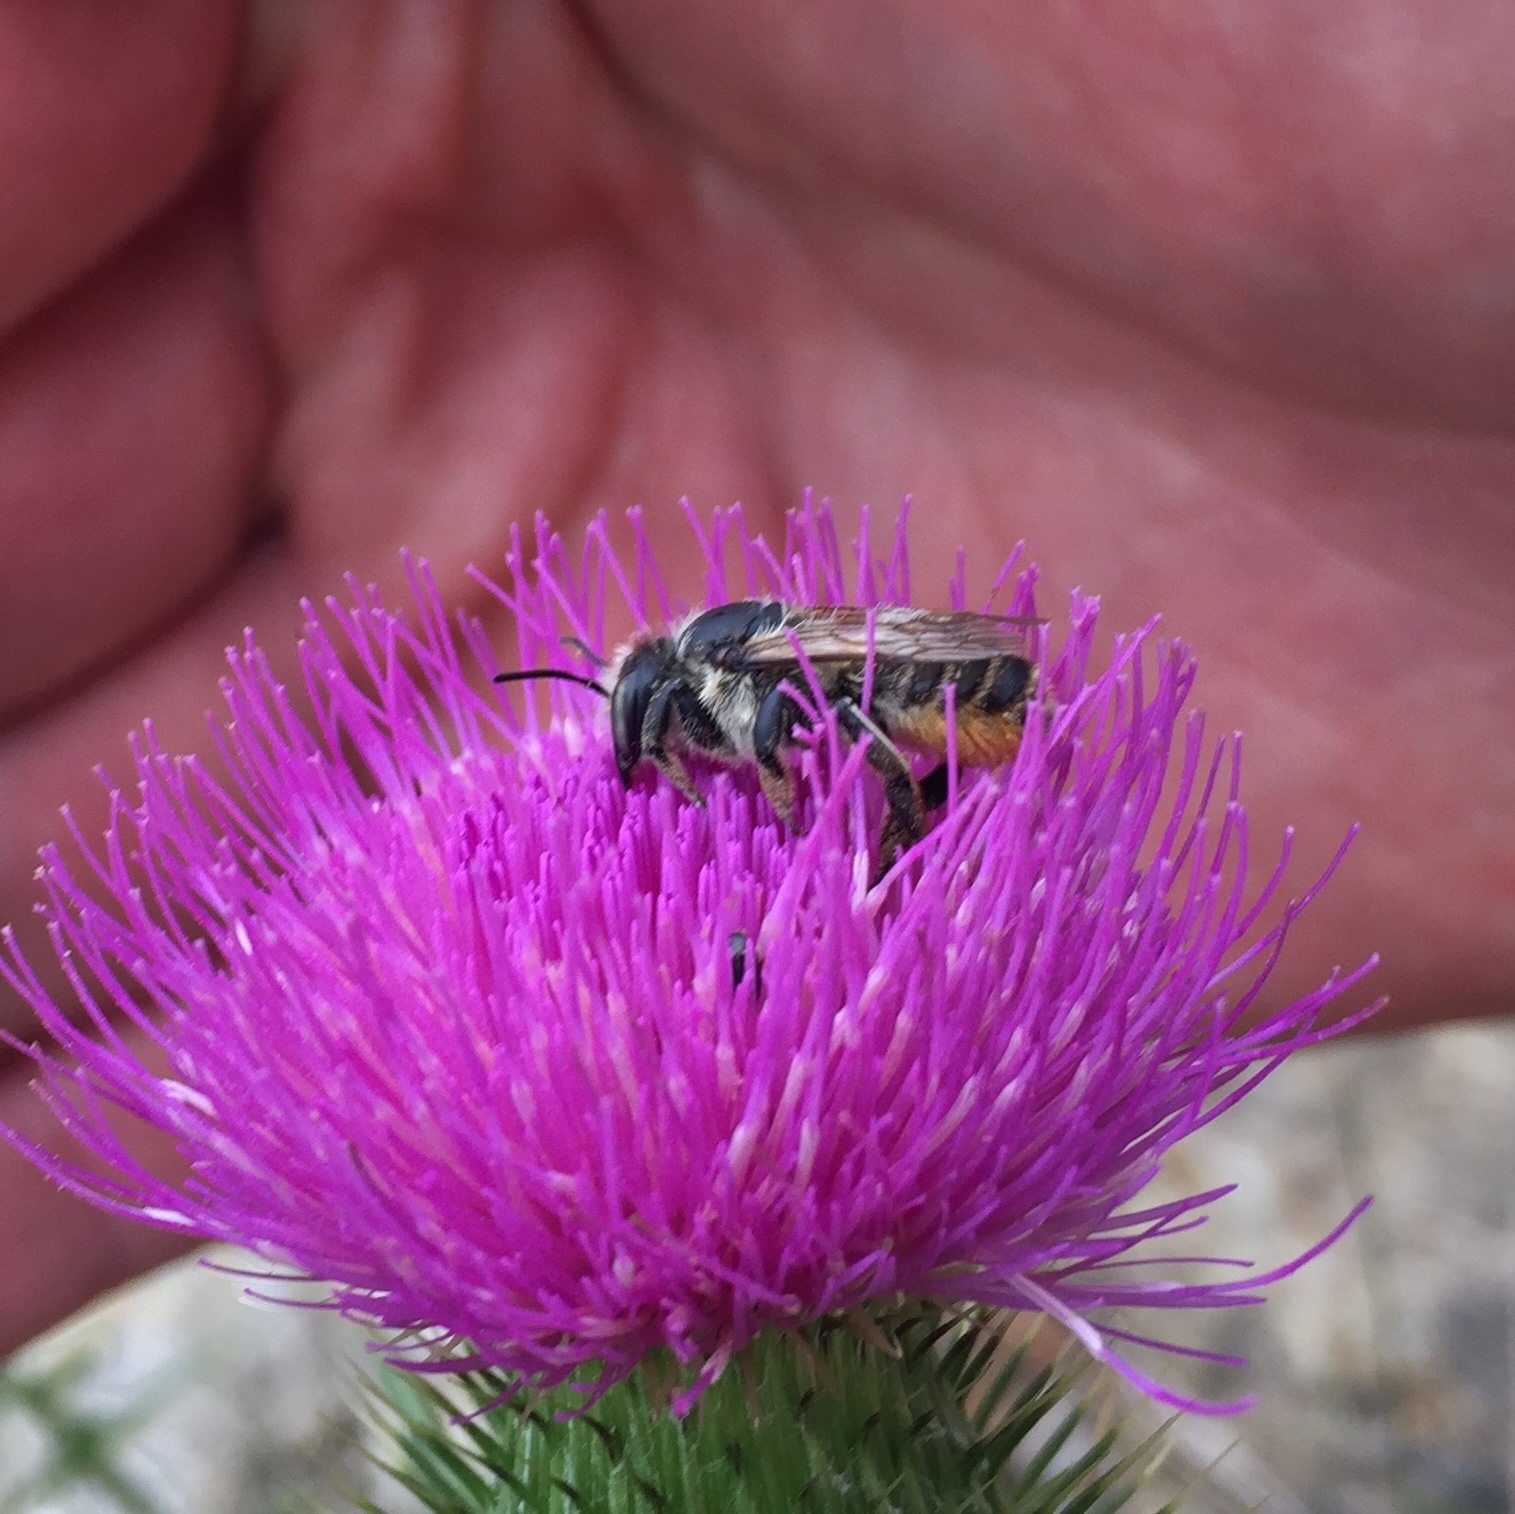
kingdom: Animalia
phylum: Arthropoda
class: Insecta
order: Hymenoptera
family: Megachilidae
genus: Megachile
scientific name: Megachile latimanus
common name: Leafcutting bee
